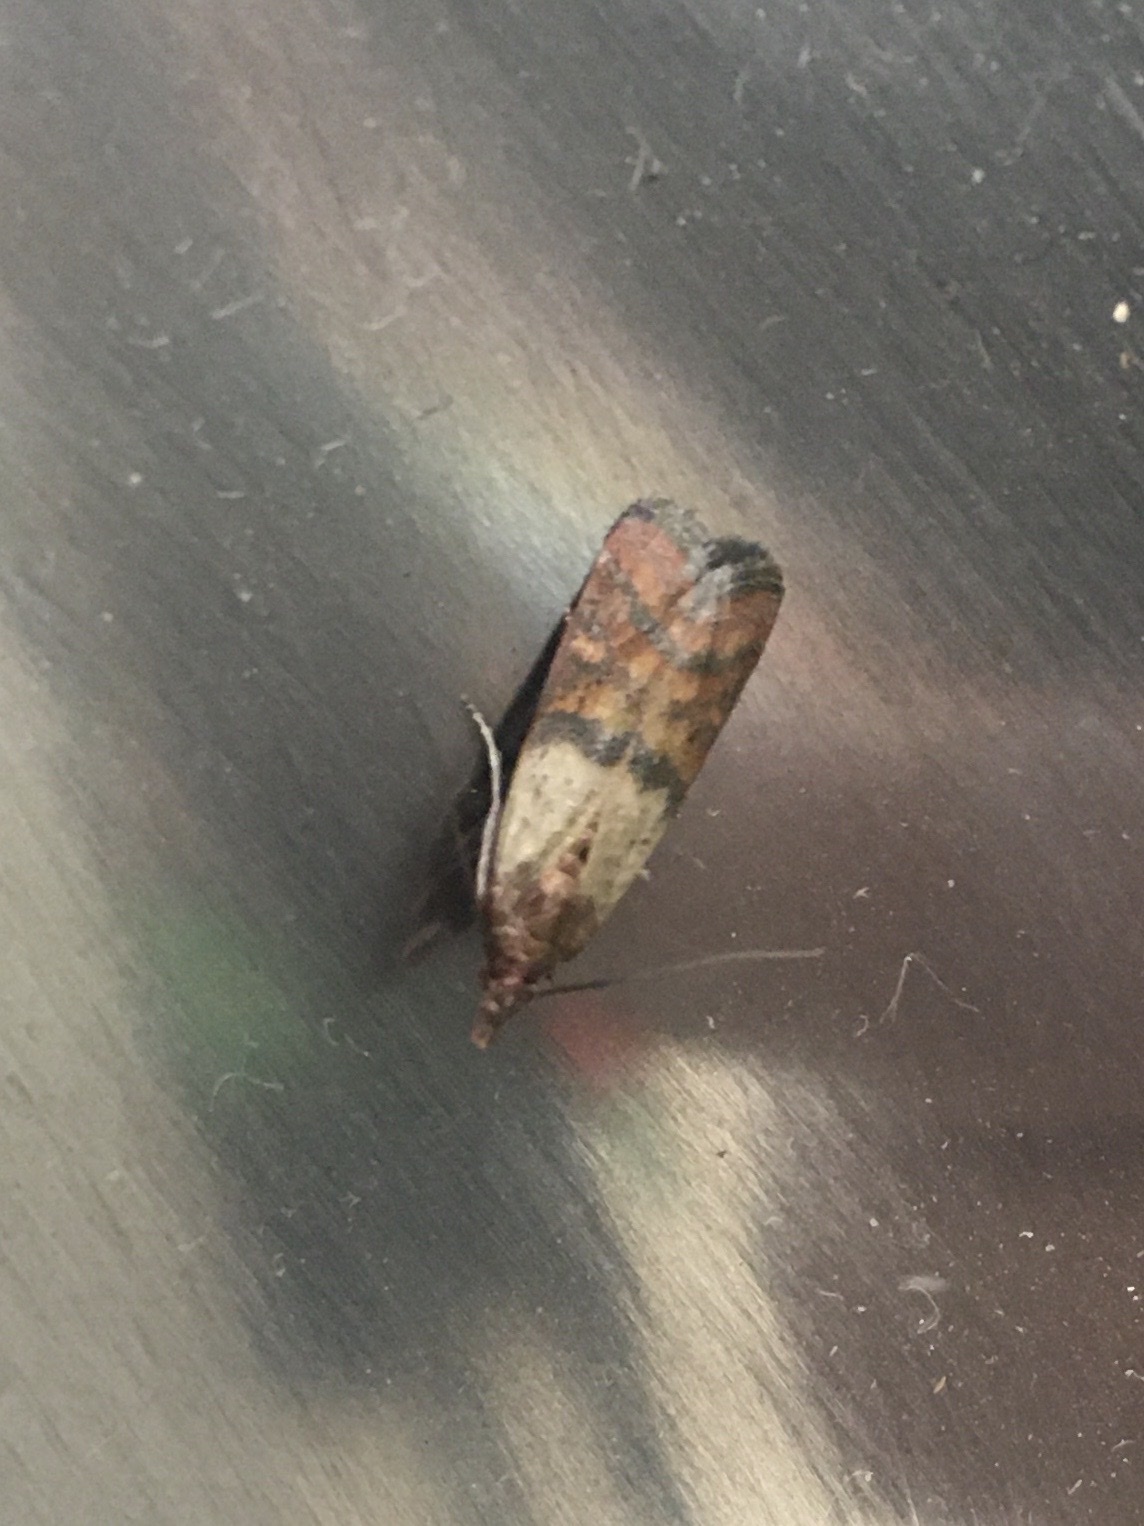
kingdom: Animalia
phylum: Arthropoda
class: Insecta
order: Lepidoptera
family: Pyralidae
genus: Plodia
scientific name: Plodia interpunctella
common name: Indian meal moth
